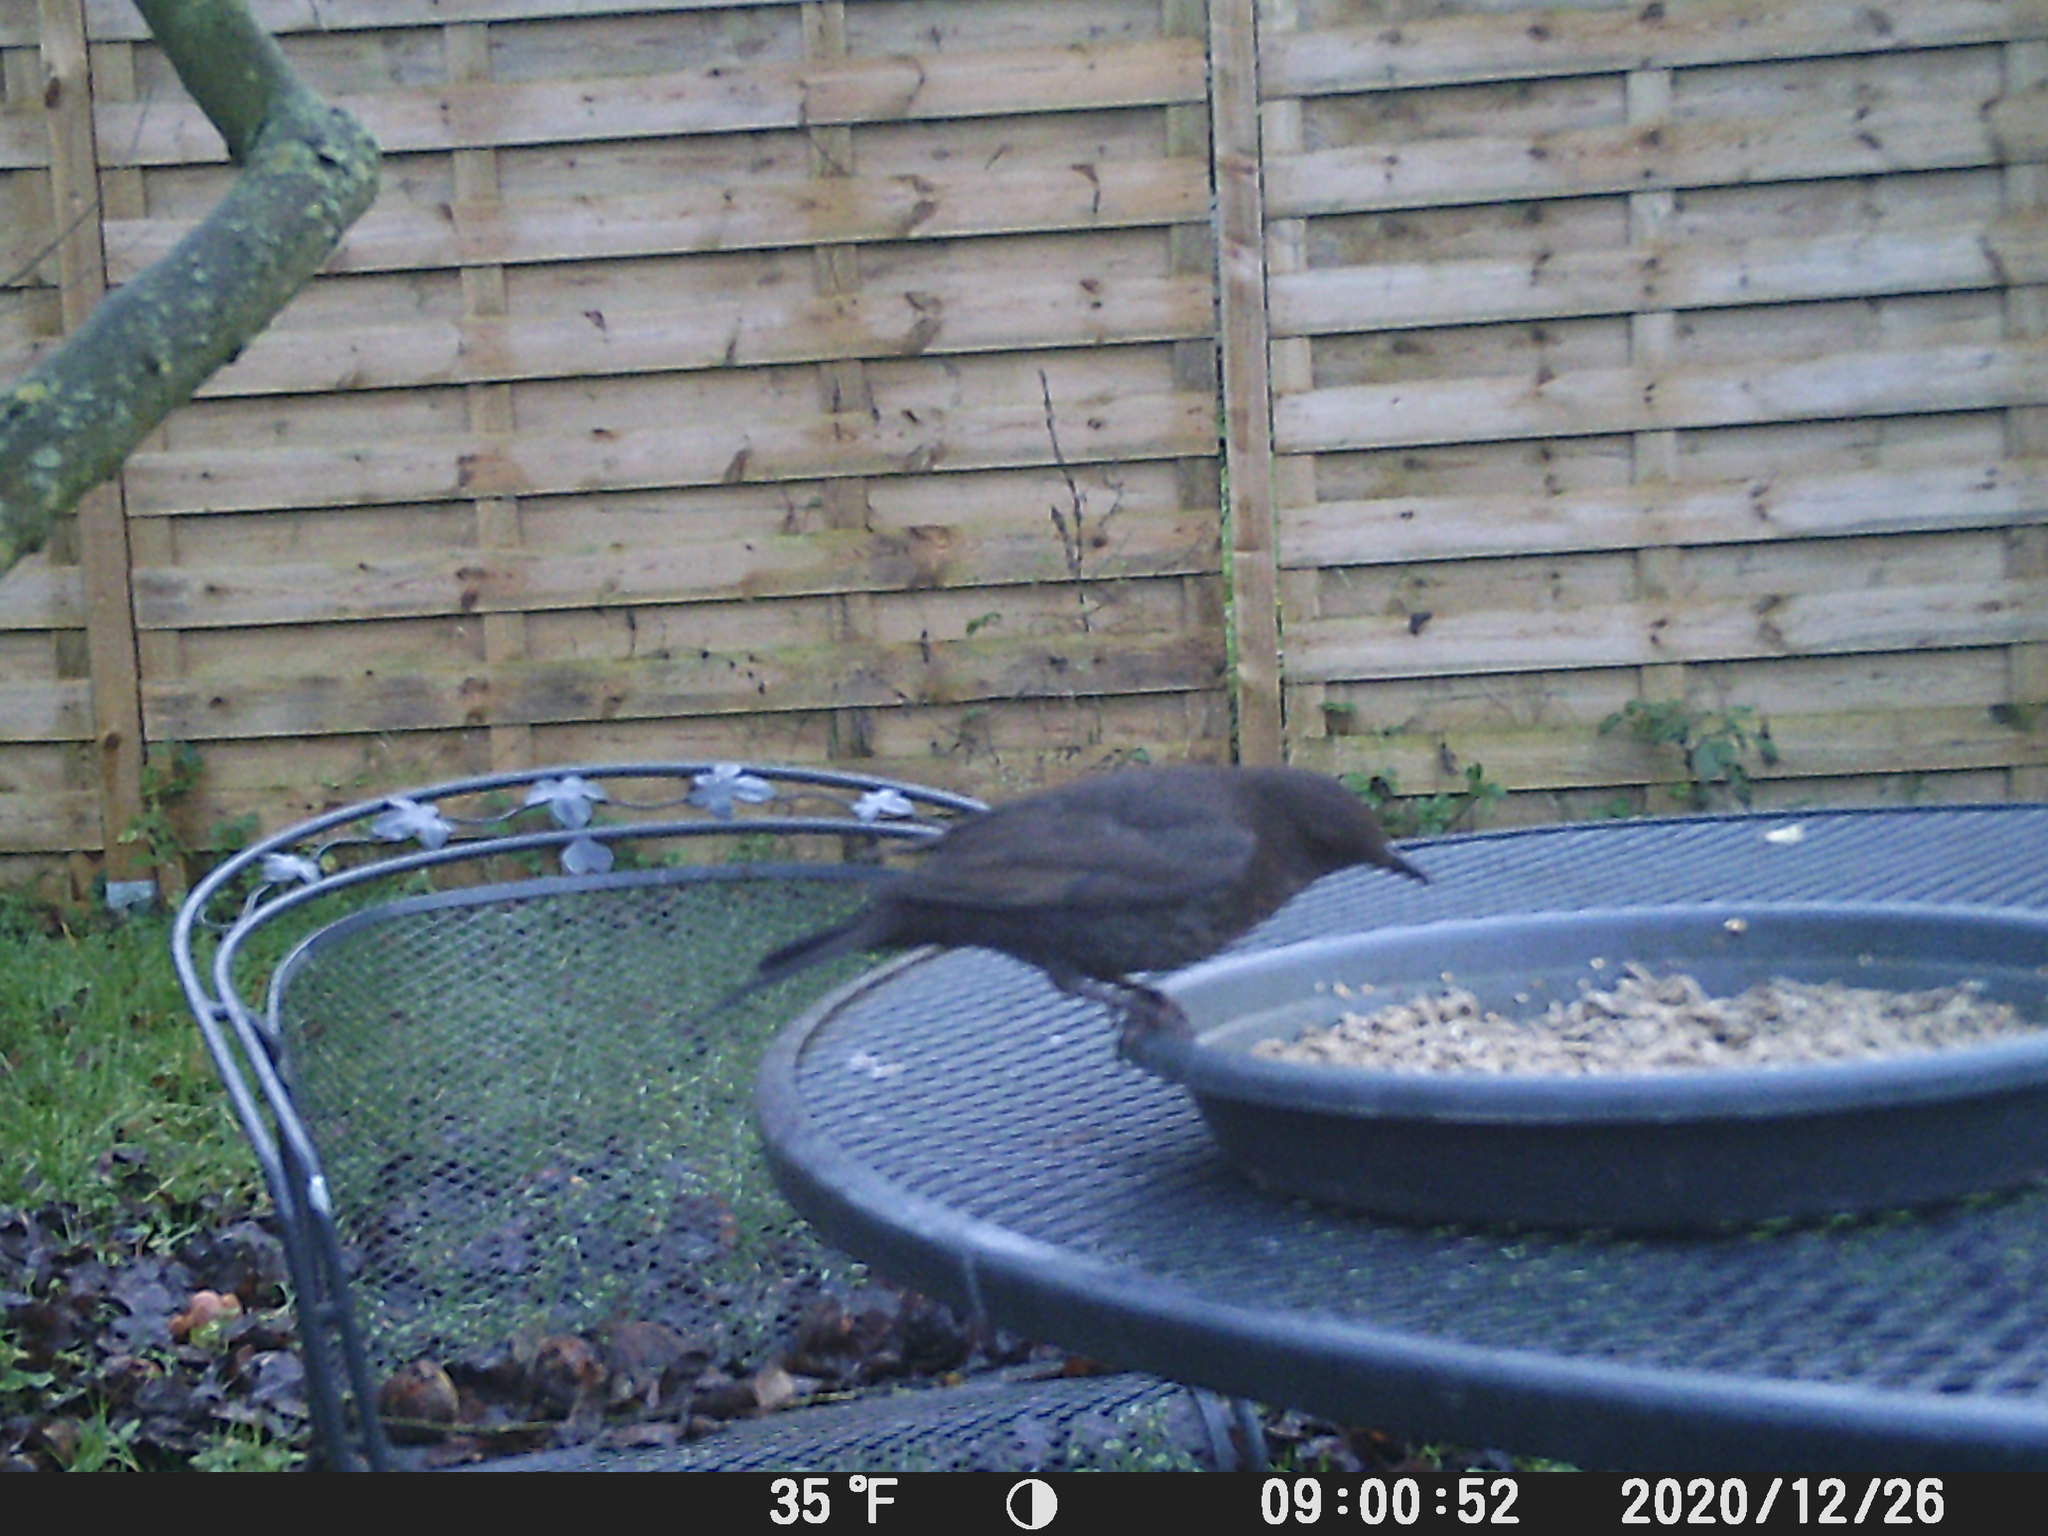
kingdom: Animalia
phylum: Chordata
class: Aves
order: Passeriformes
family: Turdidae
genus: Turdus
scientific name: Turdus merula
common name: Common blackbird
